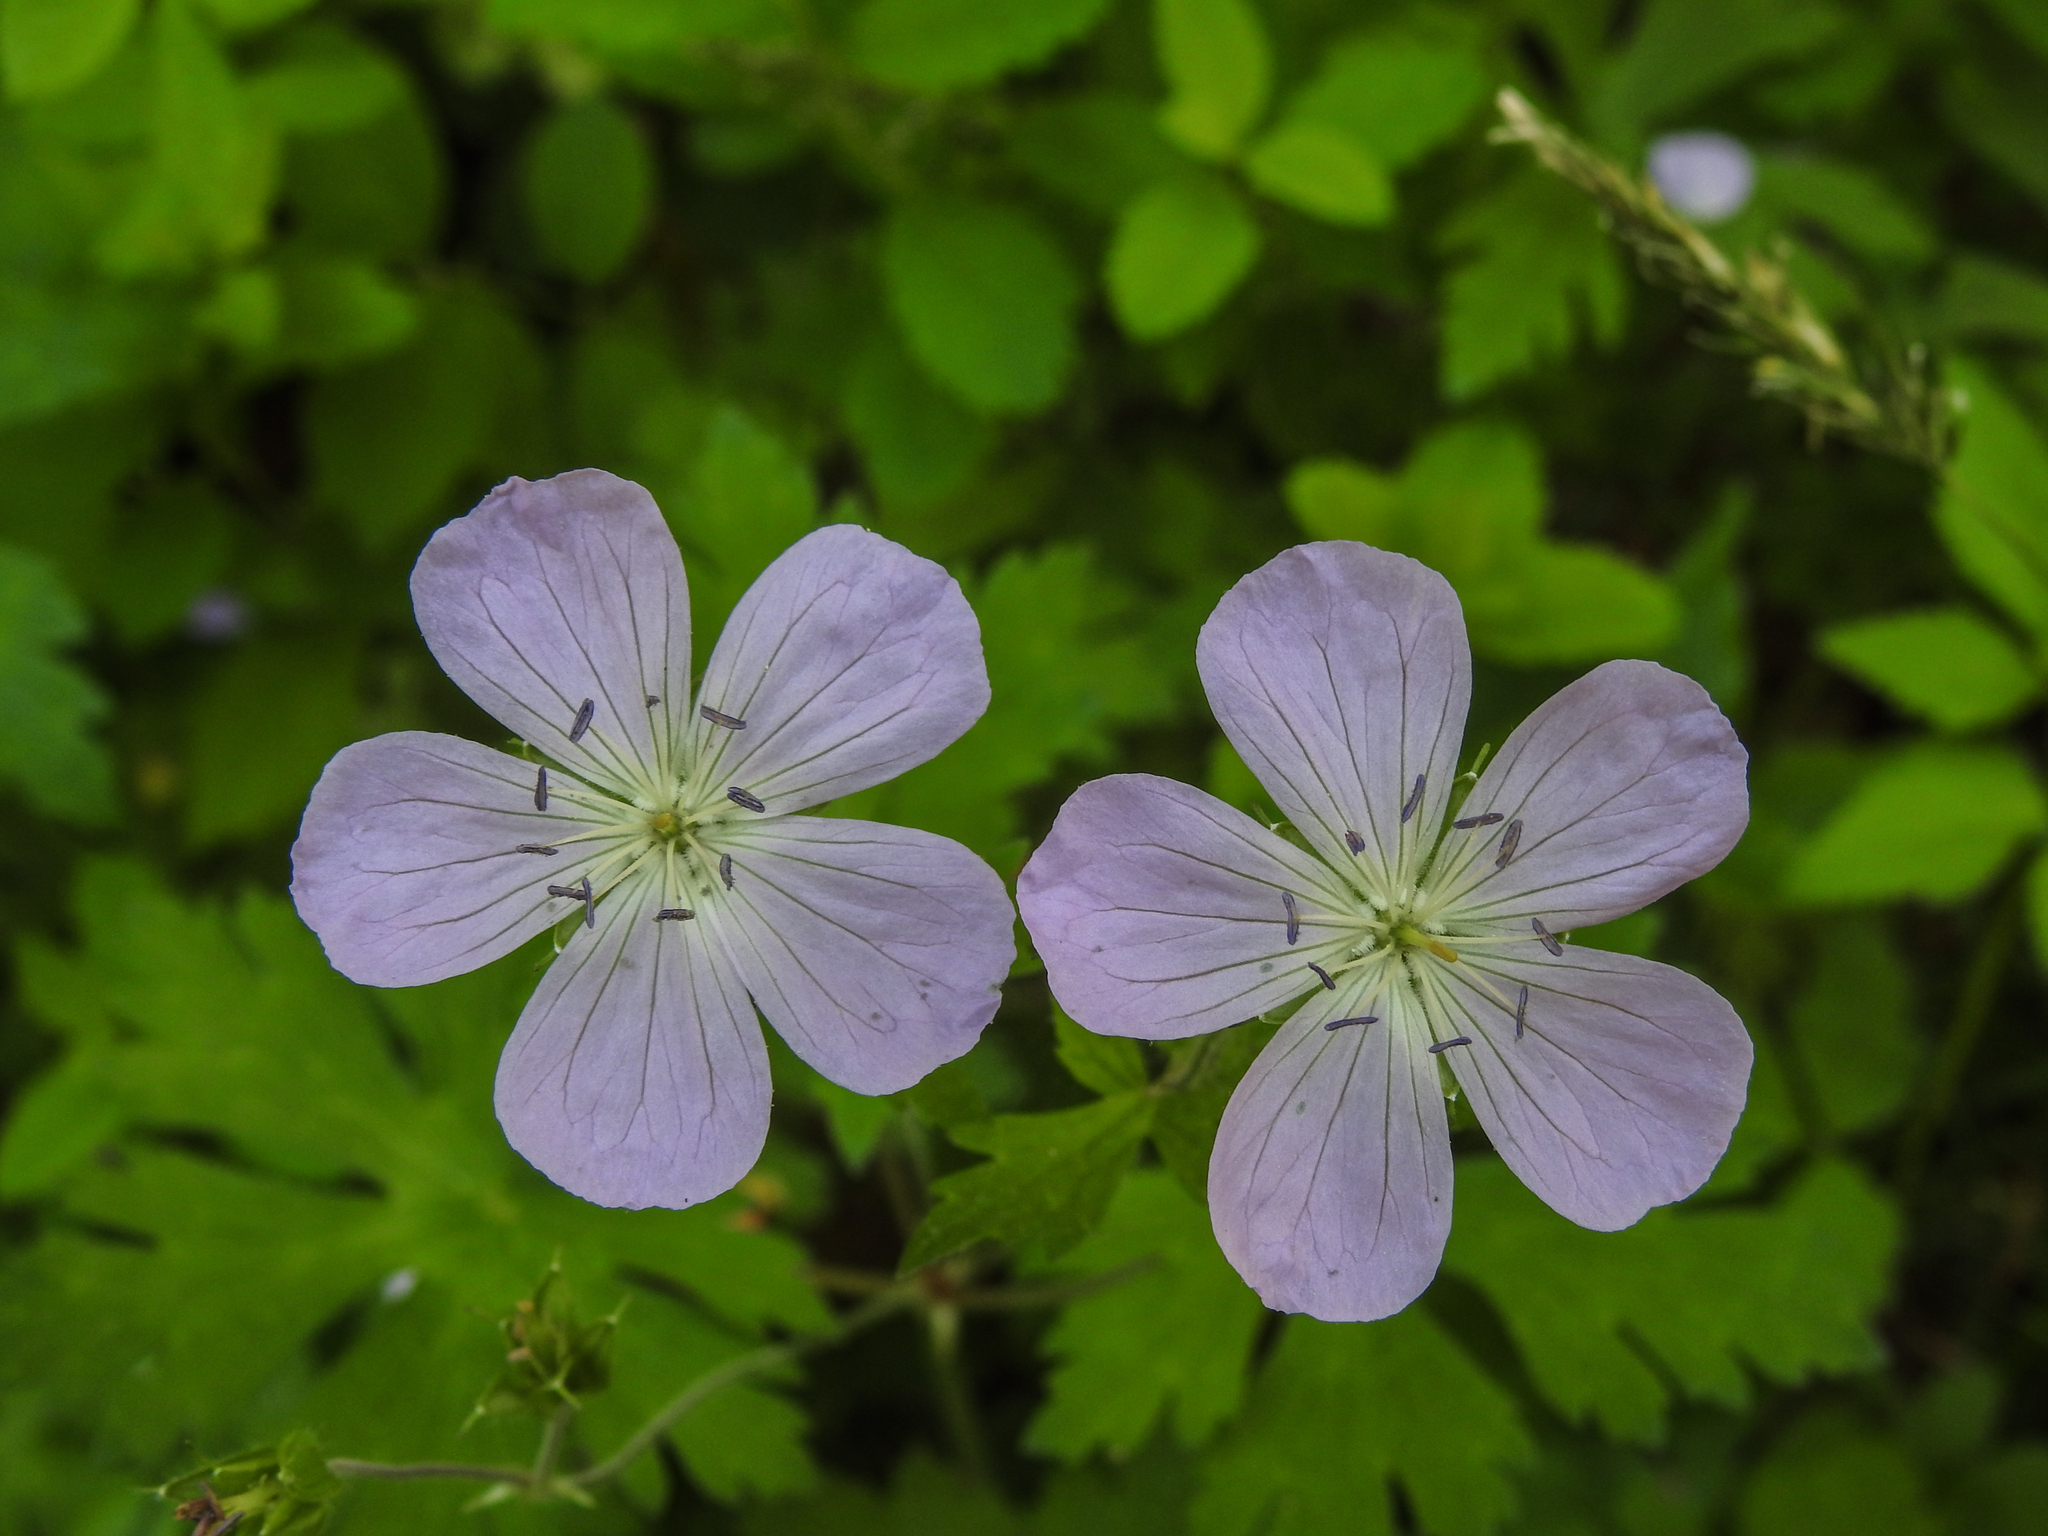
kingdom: Plantae
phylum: Tracheophyta
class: Magnoliopsida
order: Geraniales
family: Geraniaceae
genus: Geranium
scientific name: Geranium maculatum
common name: Spotted geranium
